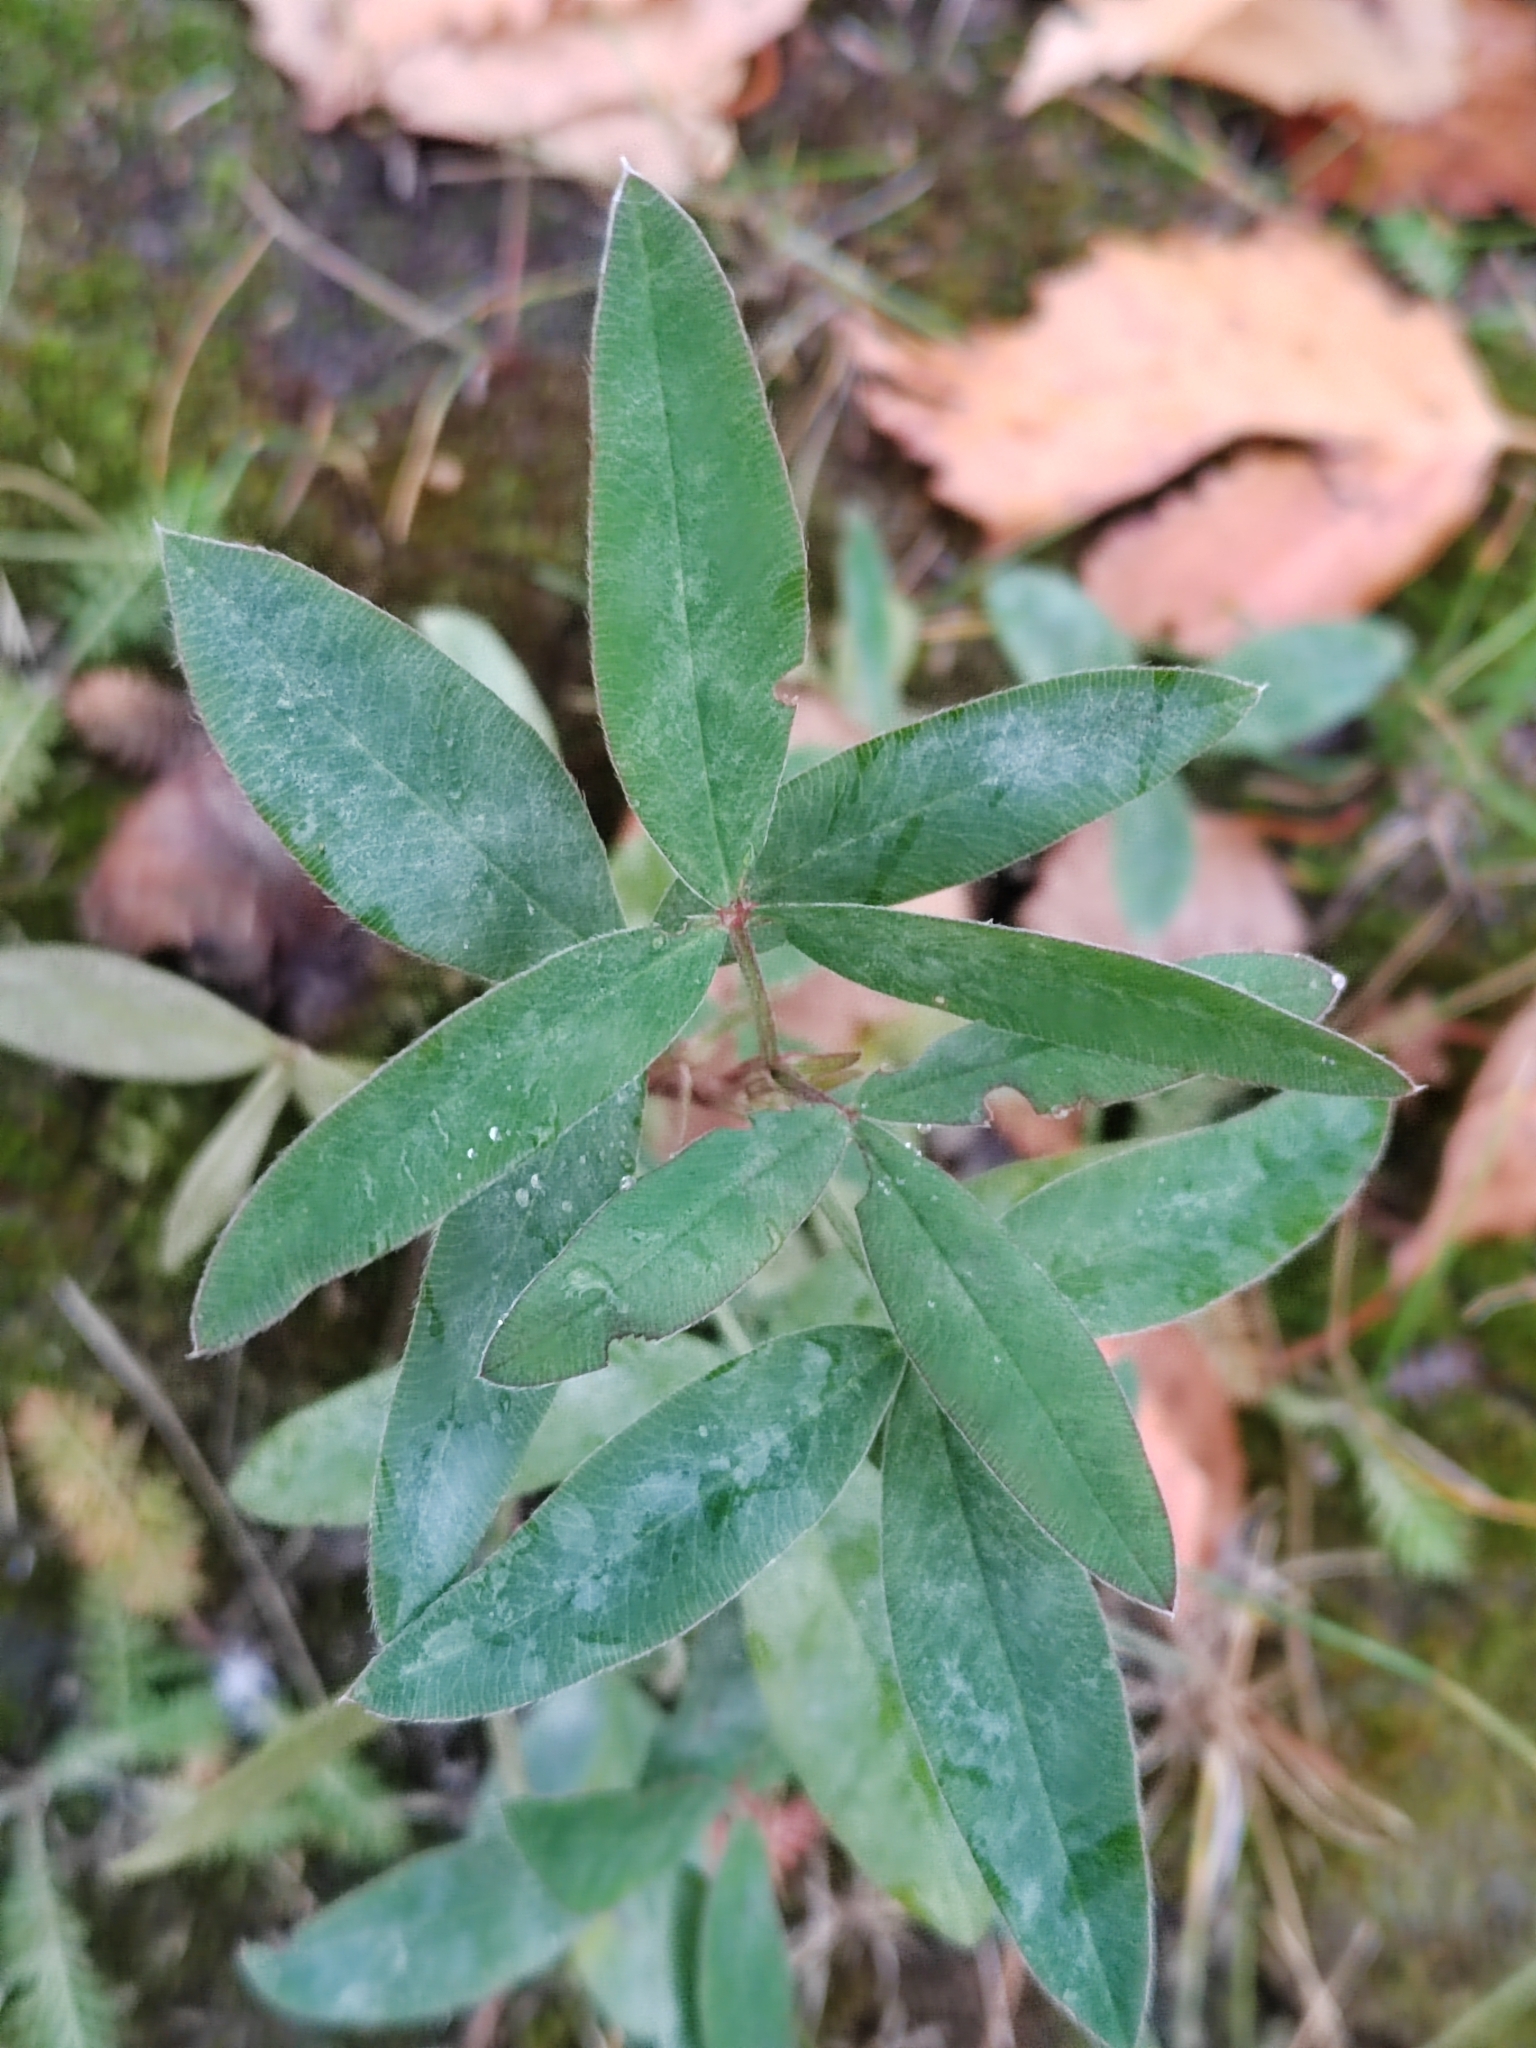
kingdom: Plantae
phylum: Tracheophyta
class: Magnoliopsida
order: Fabales
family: Fabaceae
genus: Trifolium
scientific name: Trifolium medium
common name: Zigzag clover
